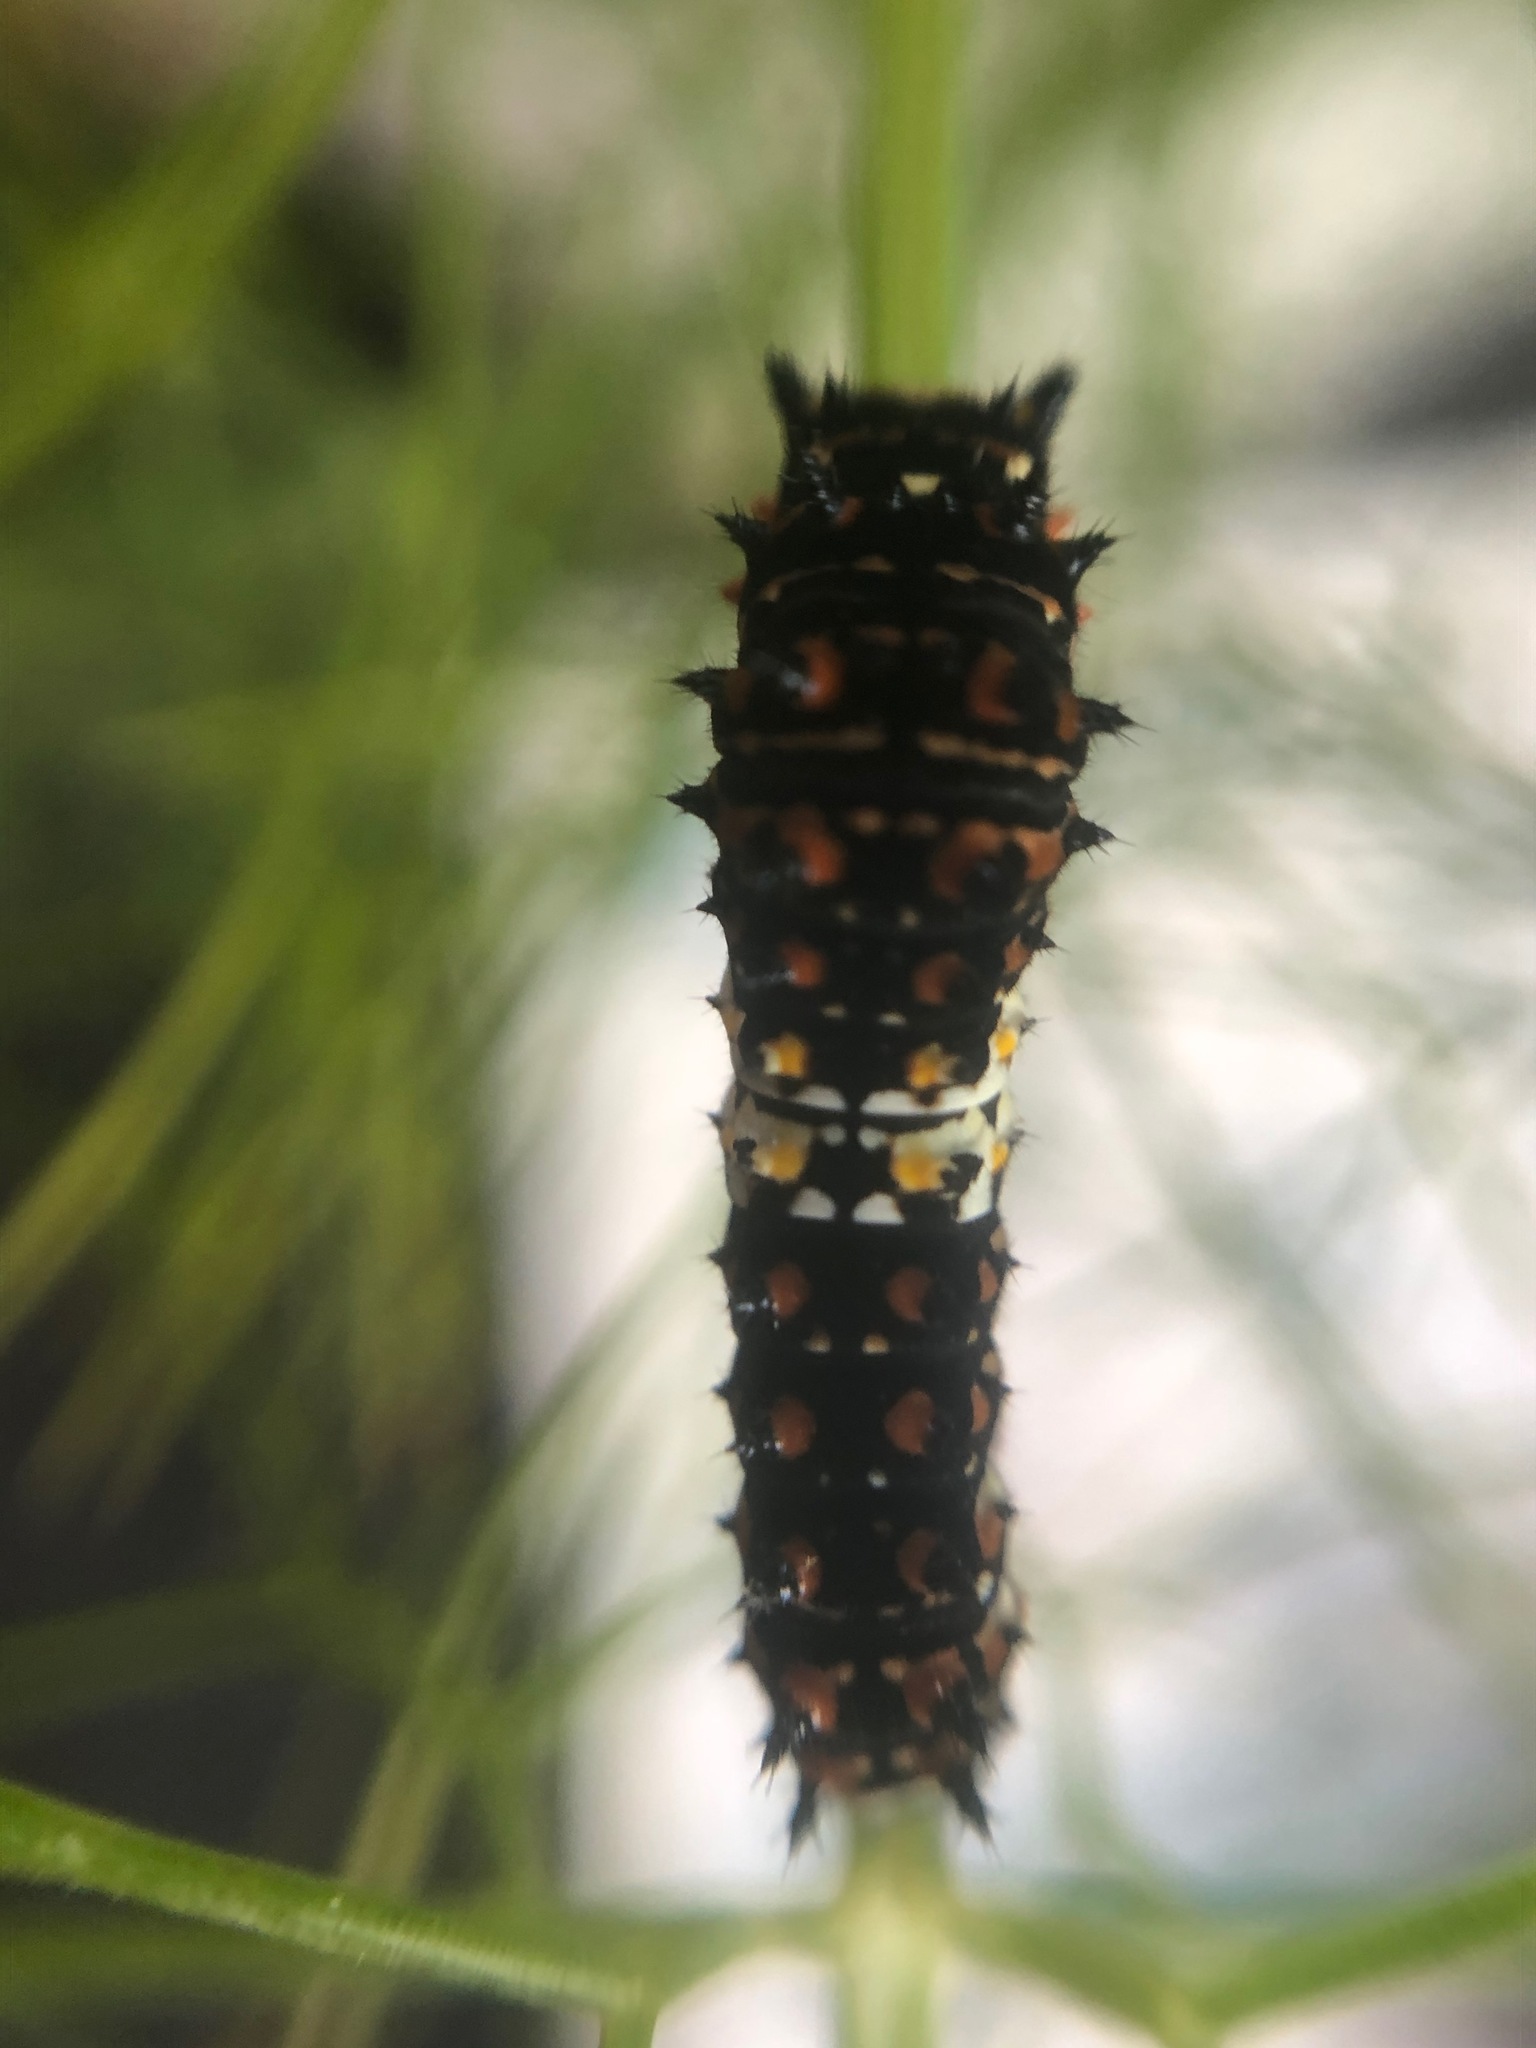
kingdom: Animalia
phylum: Arthropoda
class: Insecta
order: Lepidoptera
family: Papilionidae
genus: Papilio
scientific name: Papilio zelicaon
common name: Anise swallowtail
